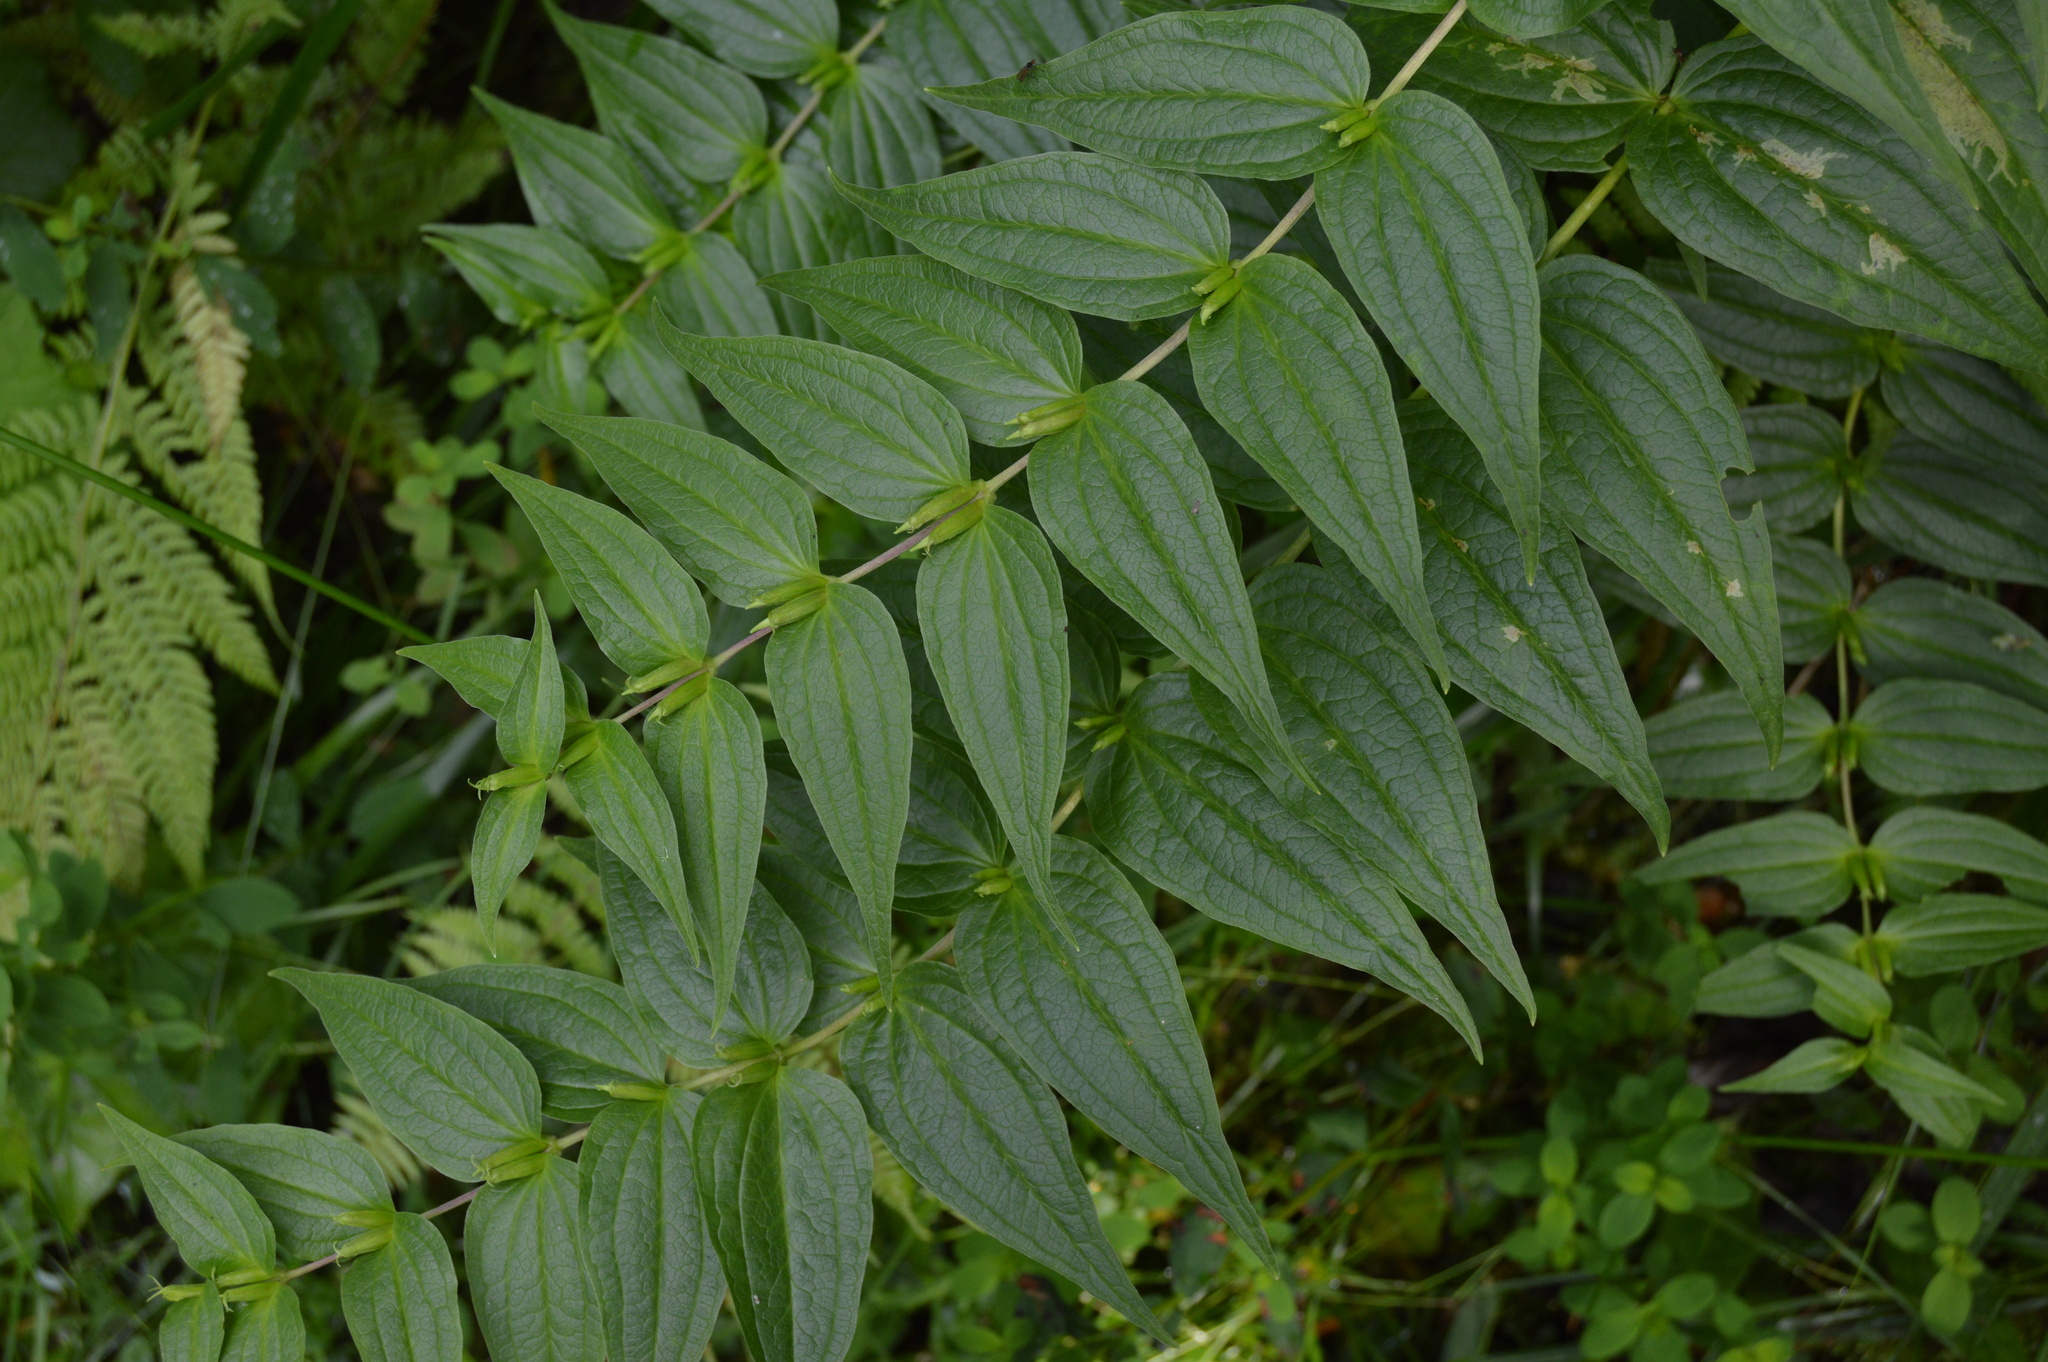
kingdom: Plantae
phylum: Tracheophyta
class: Magnoliopsida
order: Gentianales
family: Gentianaceae
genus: Gentiana
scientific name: Gentiana asclepiadea
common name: Willow gentian
